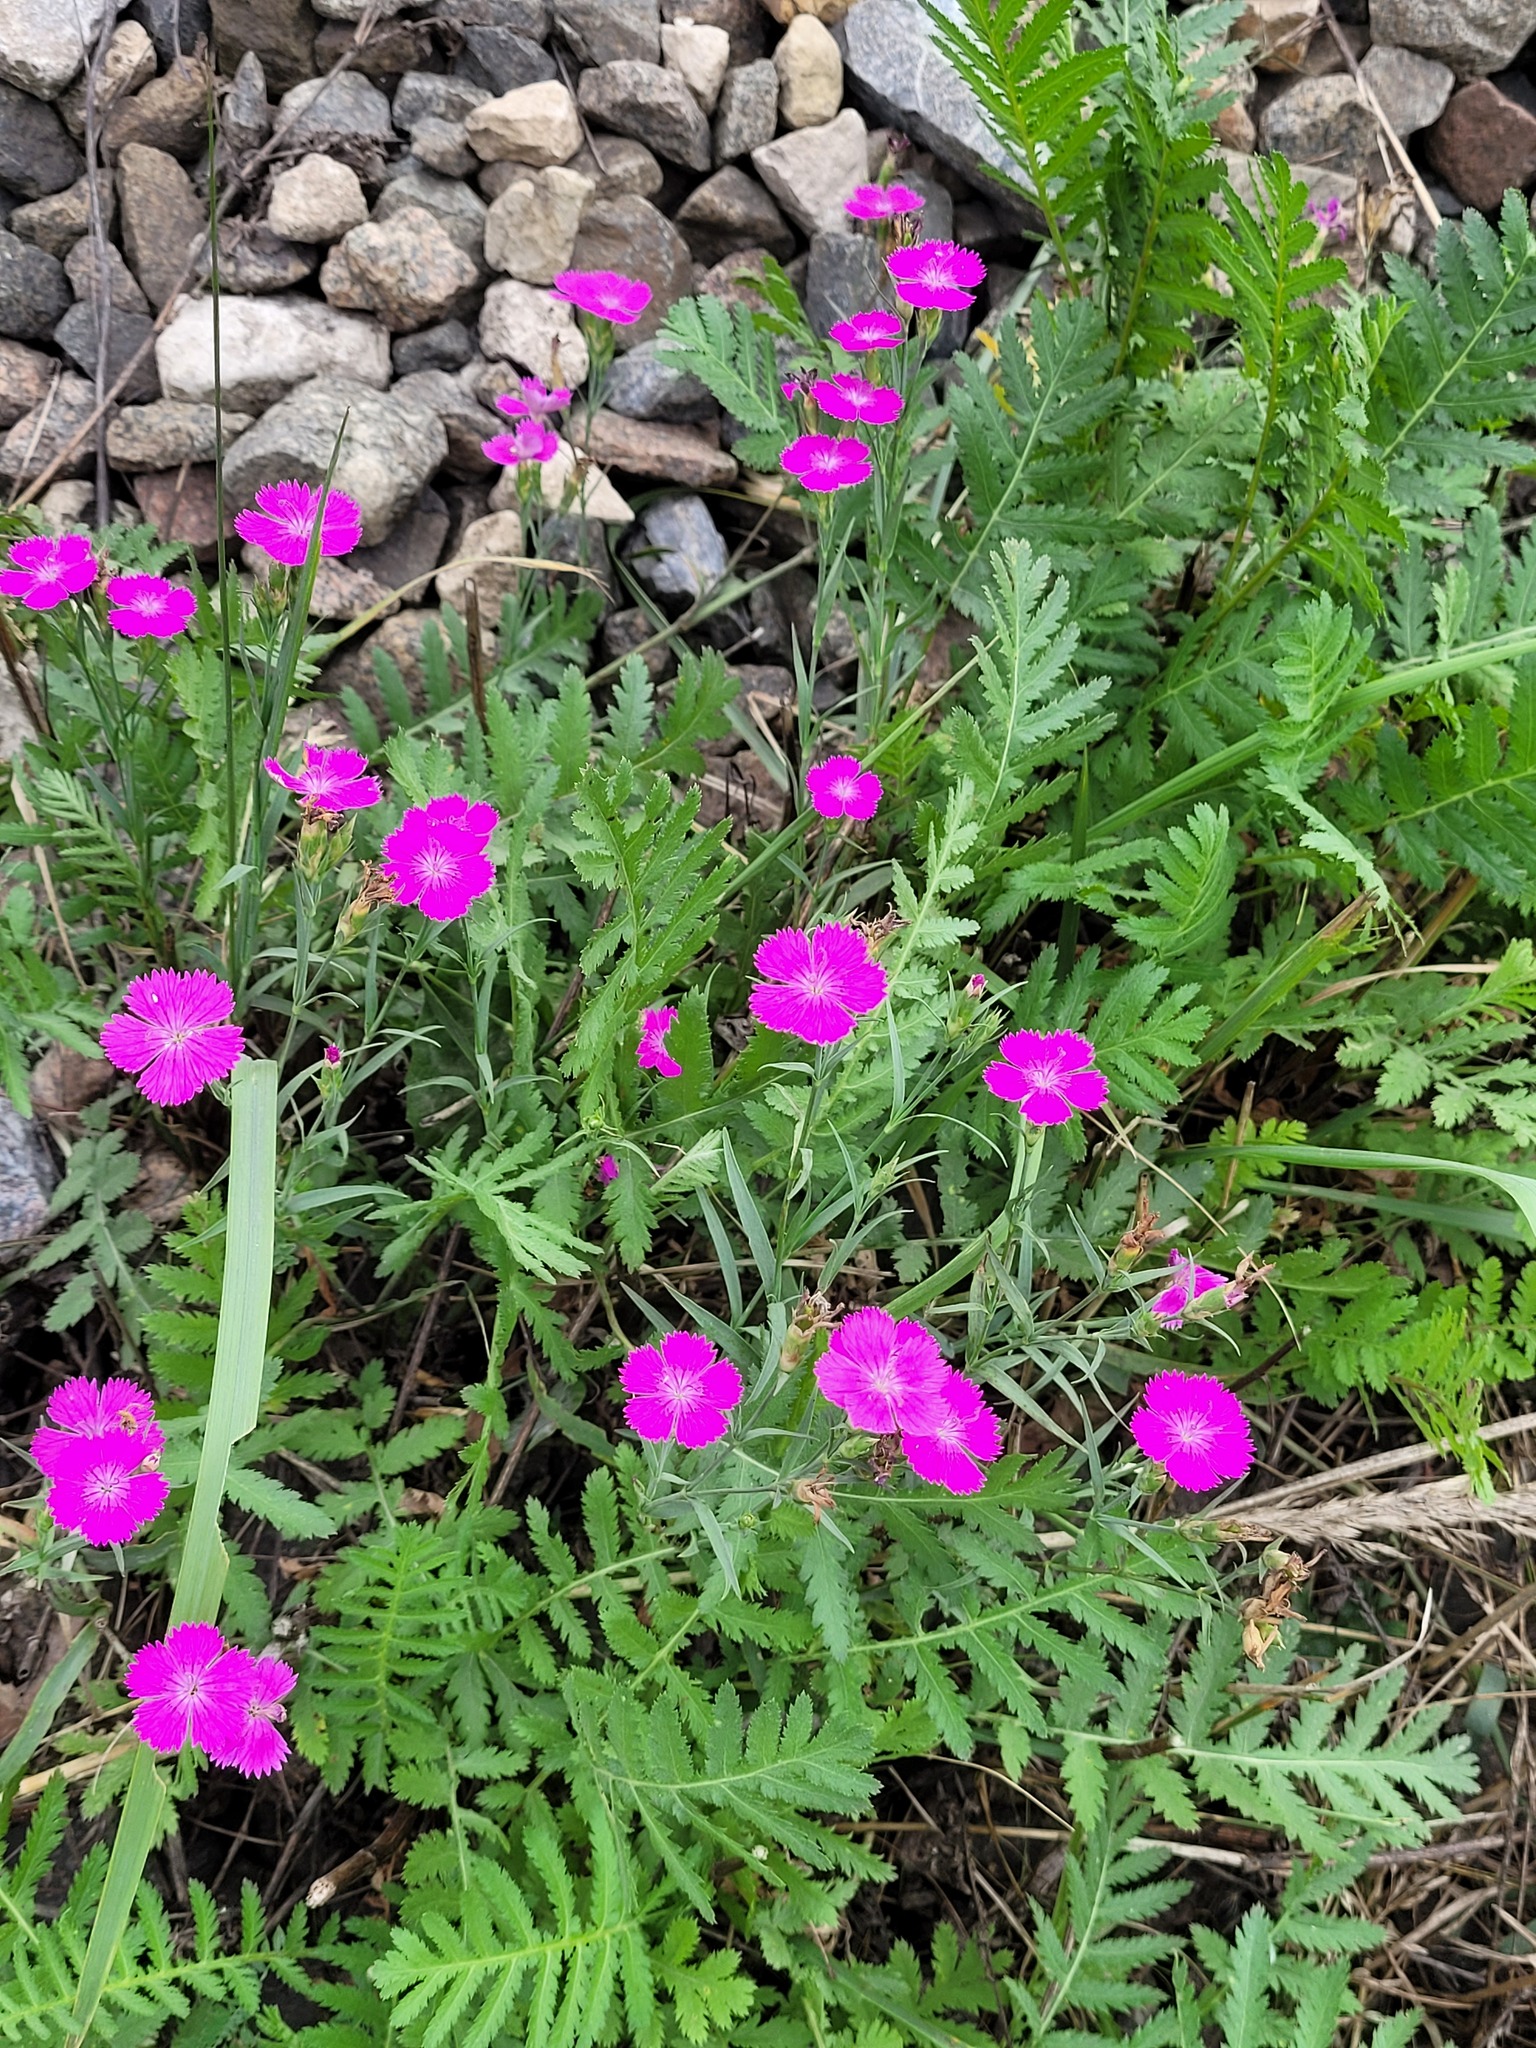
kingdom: Plantae
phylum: Tracheophyta
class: Magnoliopsida
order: Caryophyllales
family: Caryophyllaceae
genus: Dianthus
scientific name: Dianthus chinensis
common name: Rainbow pink
